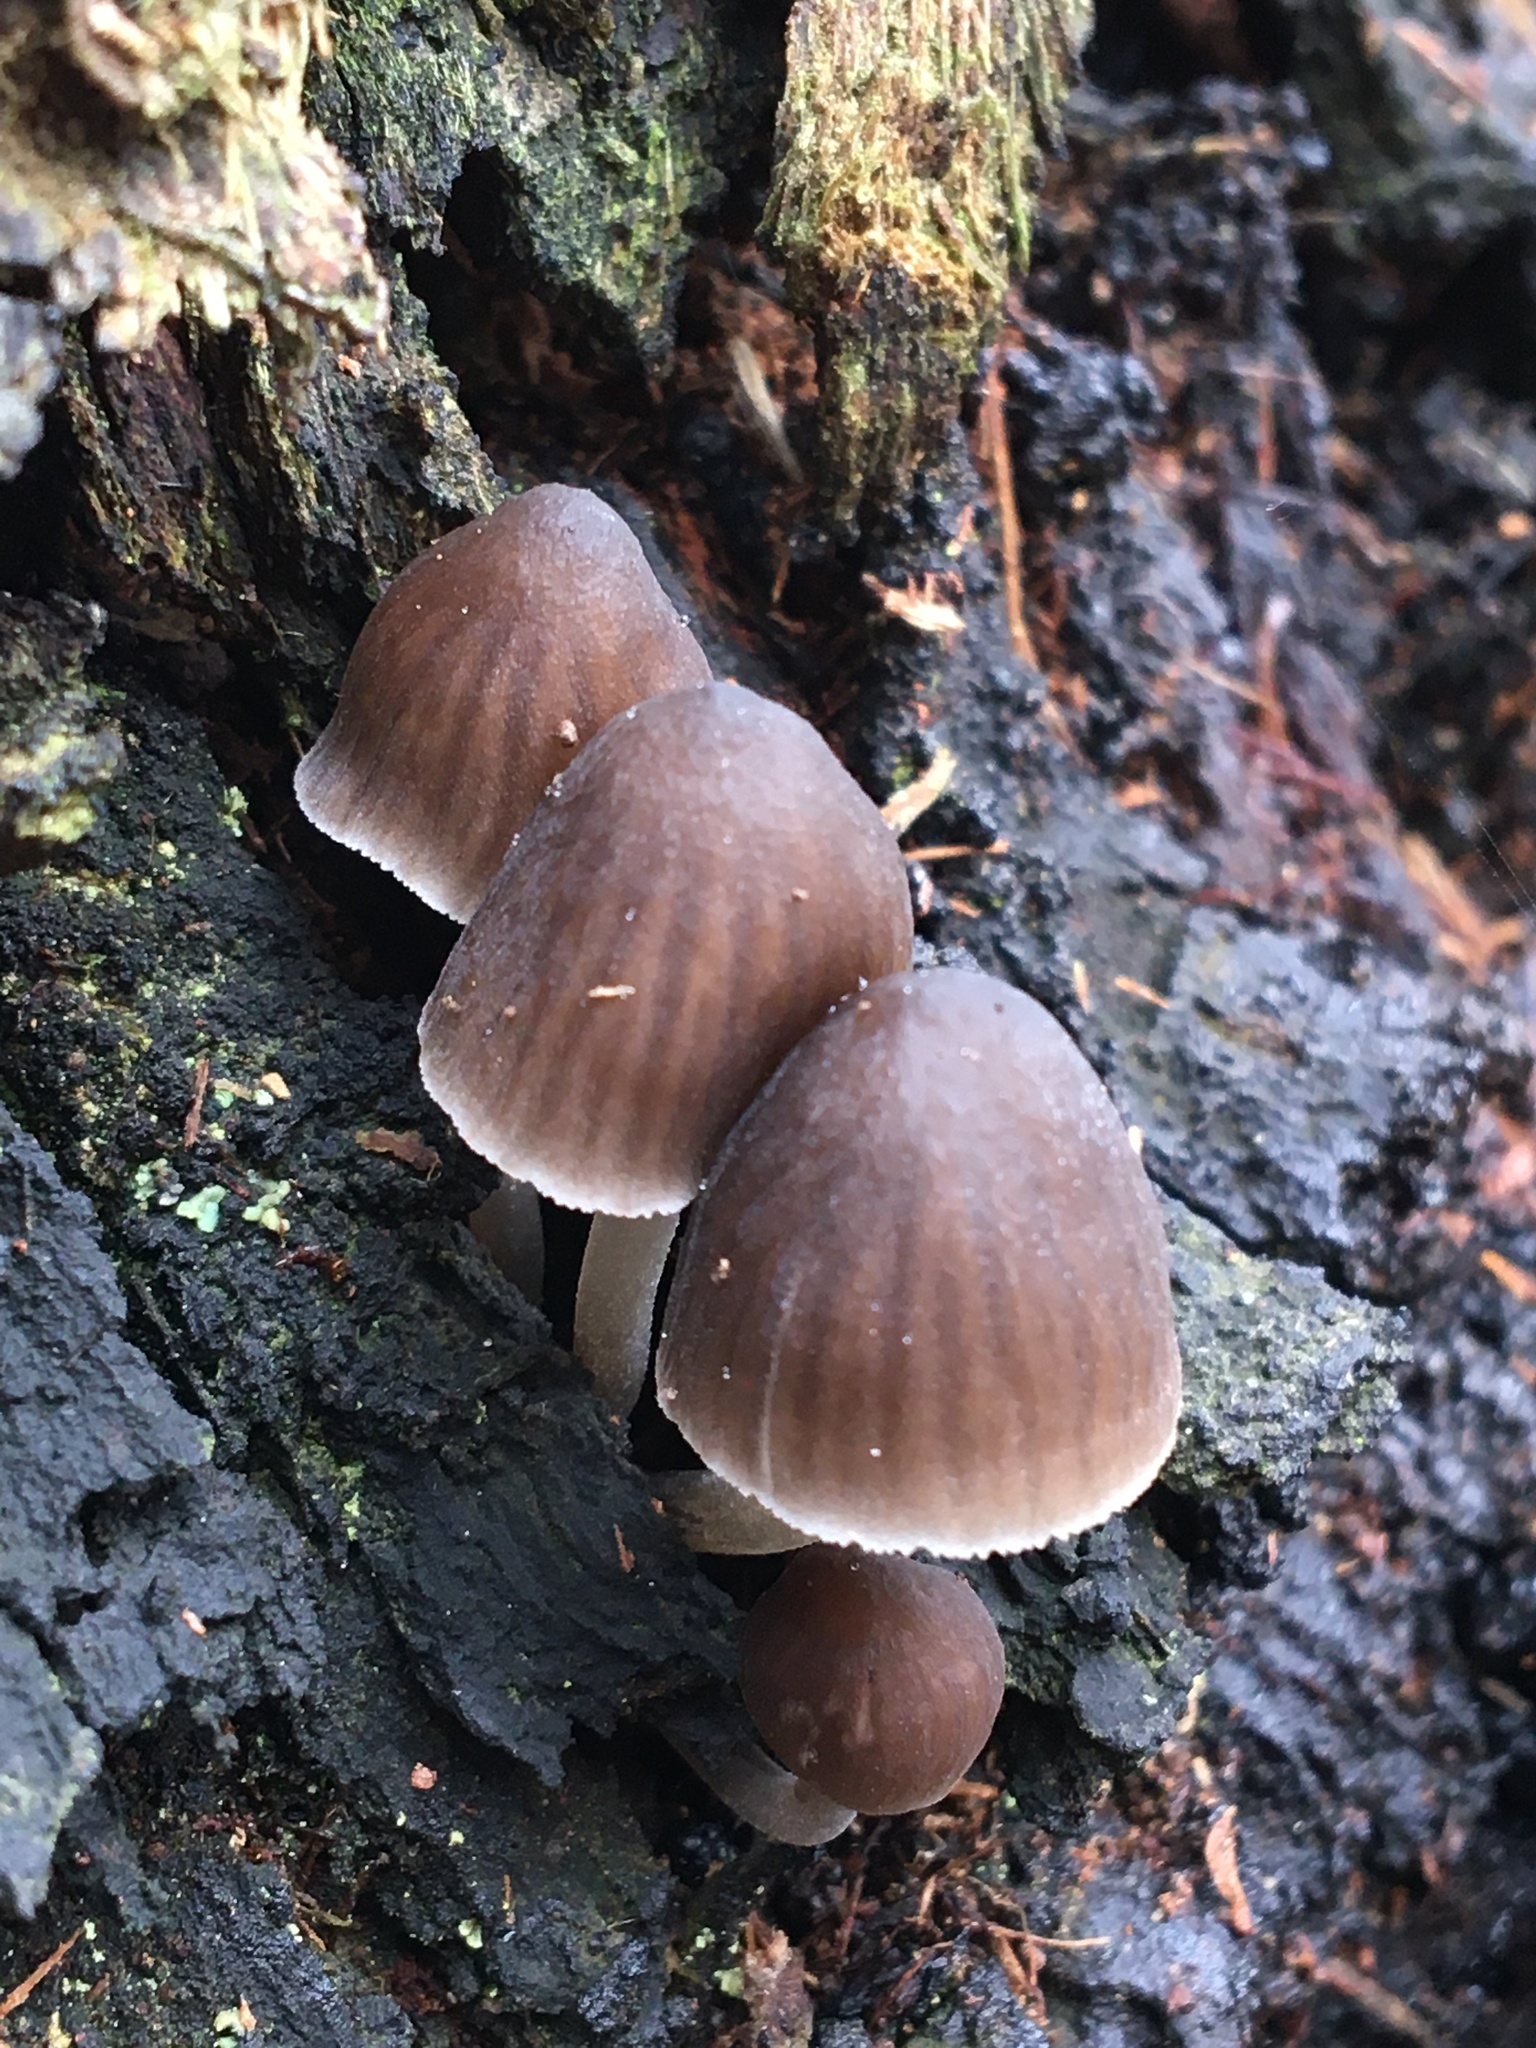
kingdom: Fungi
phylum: Basidiomycota
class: Agaricomycetes
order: Agaricales
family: Mycenaceae
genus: Mycena
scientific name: Mycena subgalericulata
